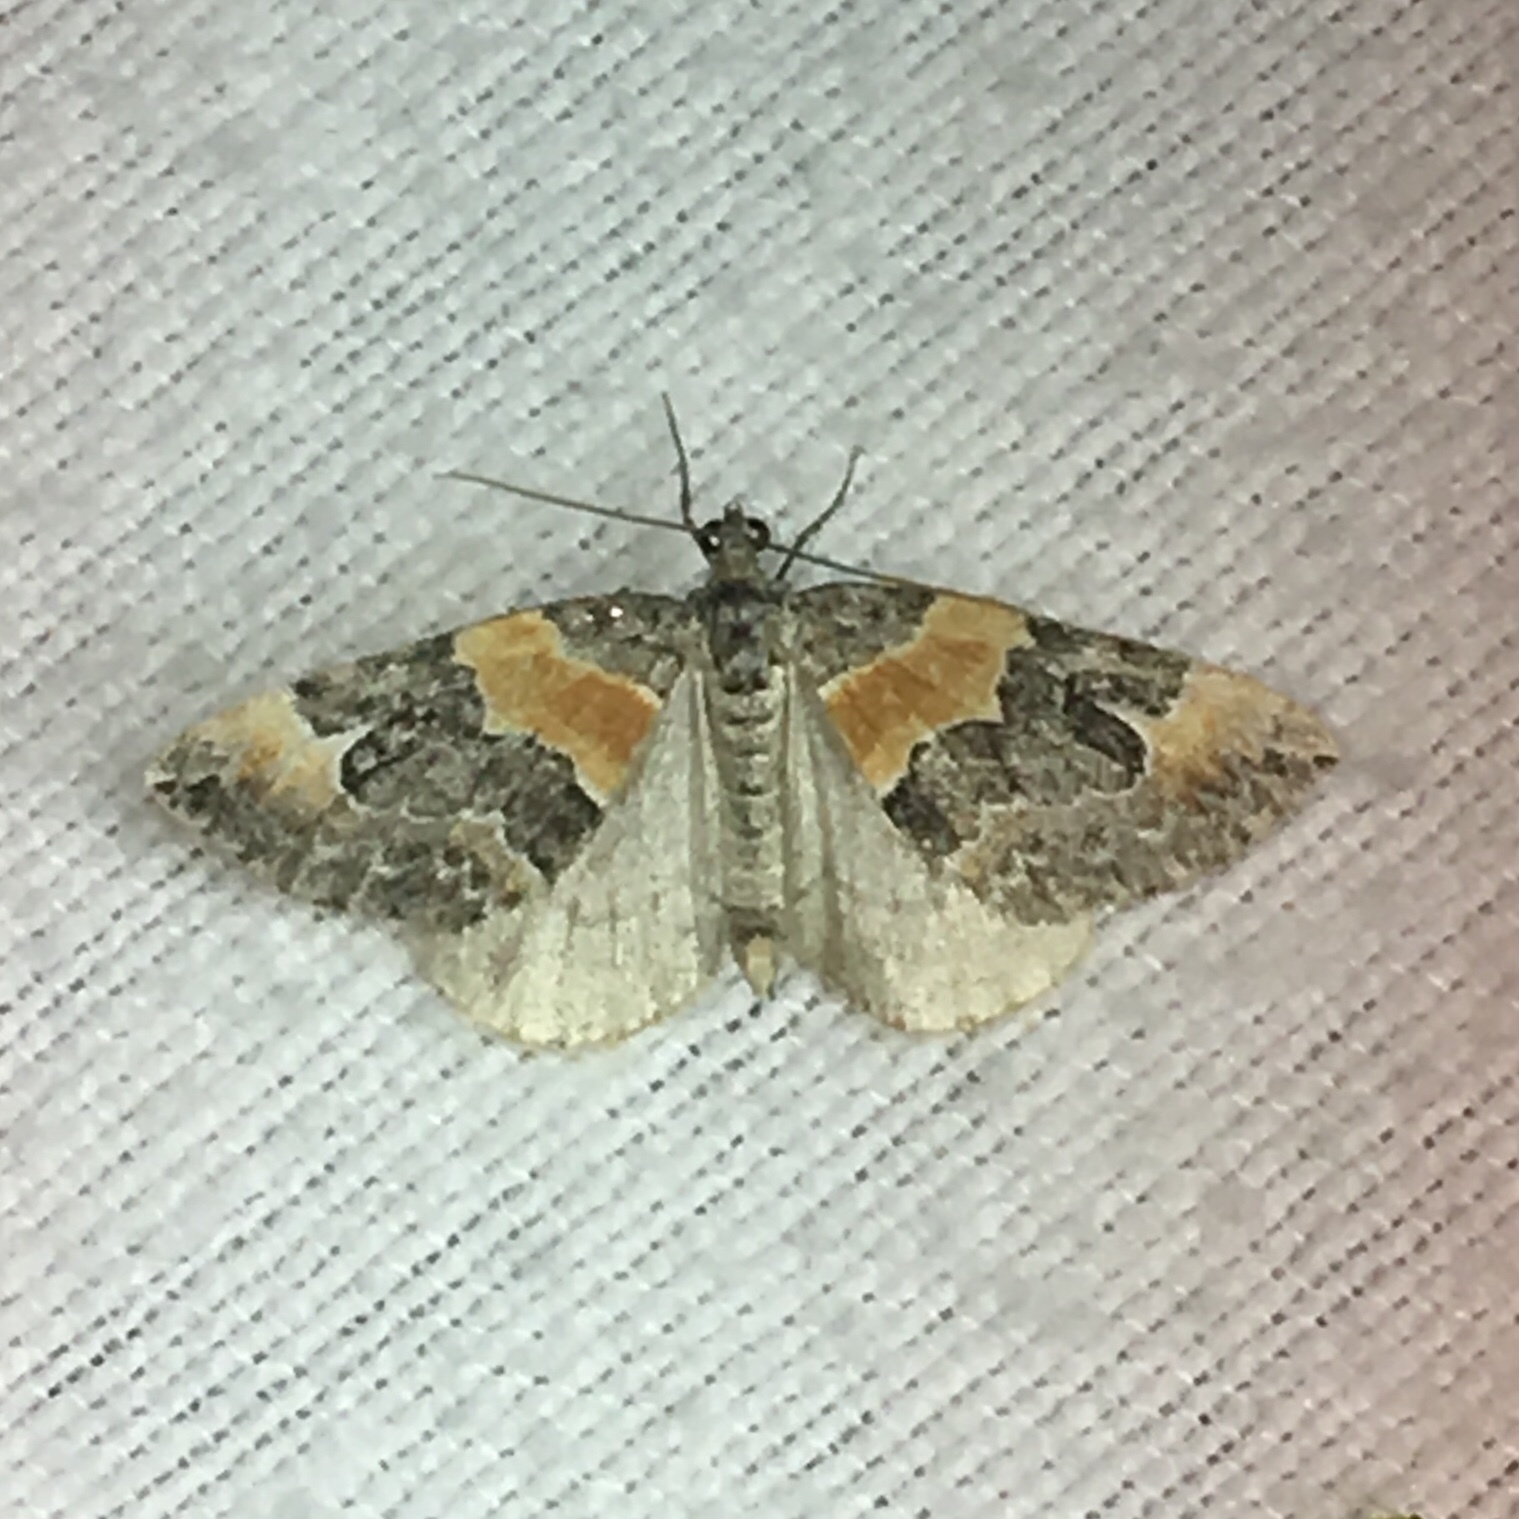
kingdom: Animalia
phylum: Arthropoda
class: Insecta
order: Lepidoptera
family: Geometridae
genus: Dysstroma
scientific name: Dysstroma hersiliata
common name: Orange-barred carpet
